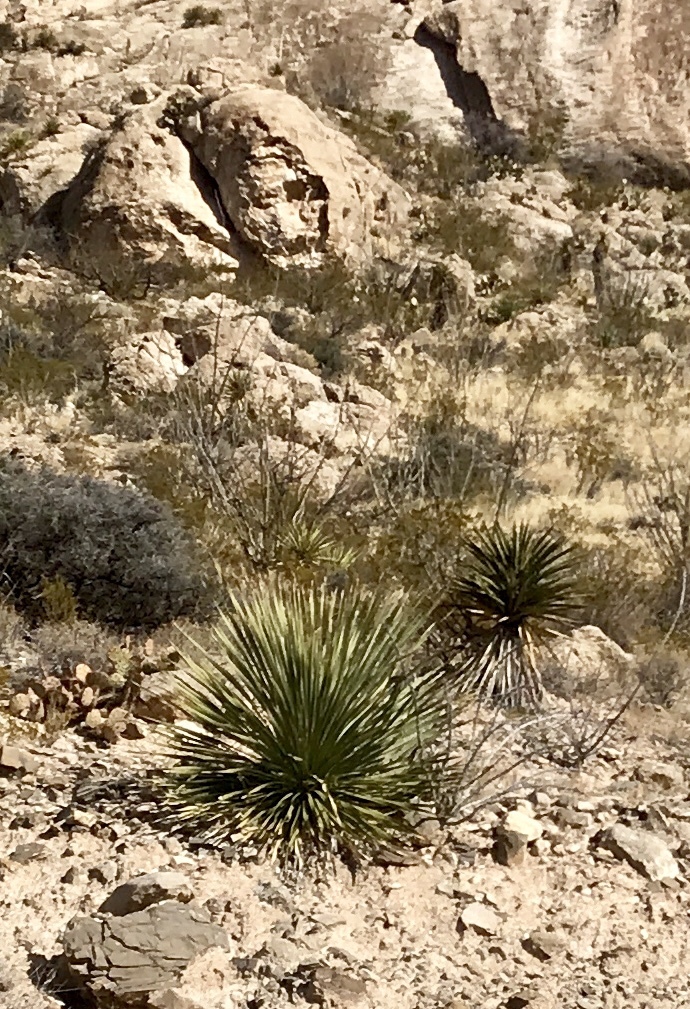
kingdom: Plantae
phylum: Tracheophyta
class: Liliopsida
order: Asparagales
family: Asparagaceae
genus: Dasylirion
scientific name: Dasylirion wheeleri
